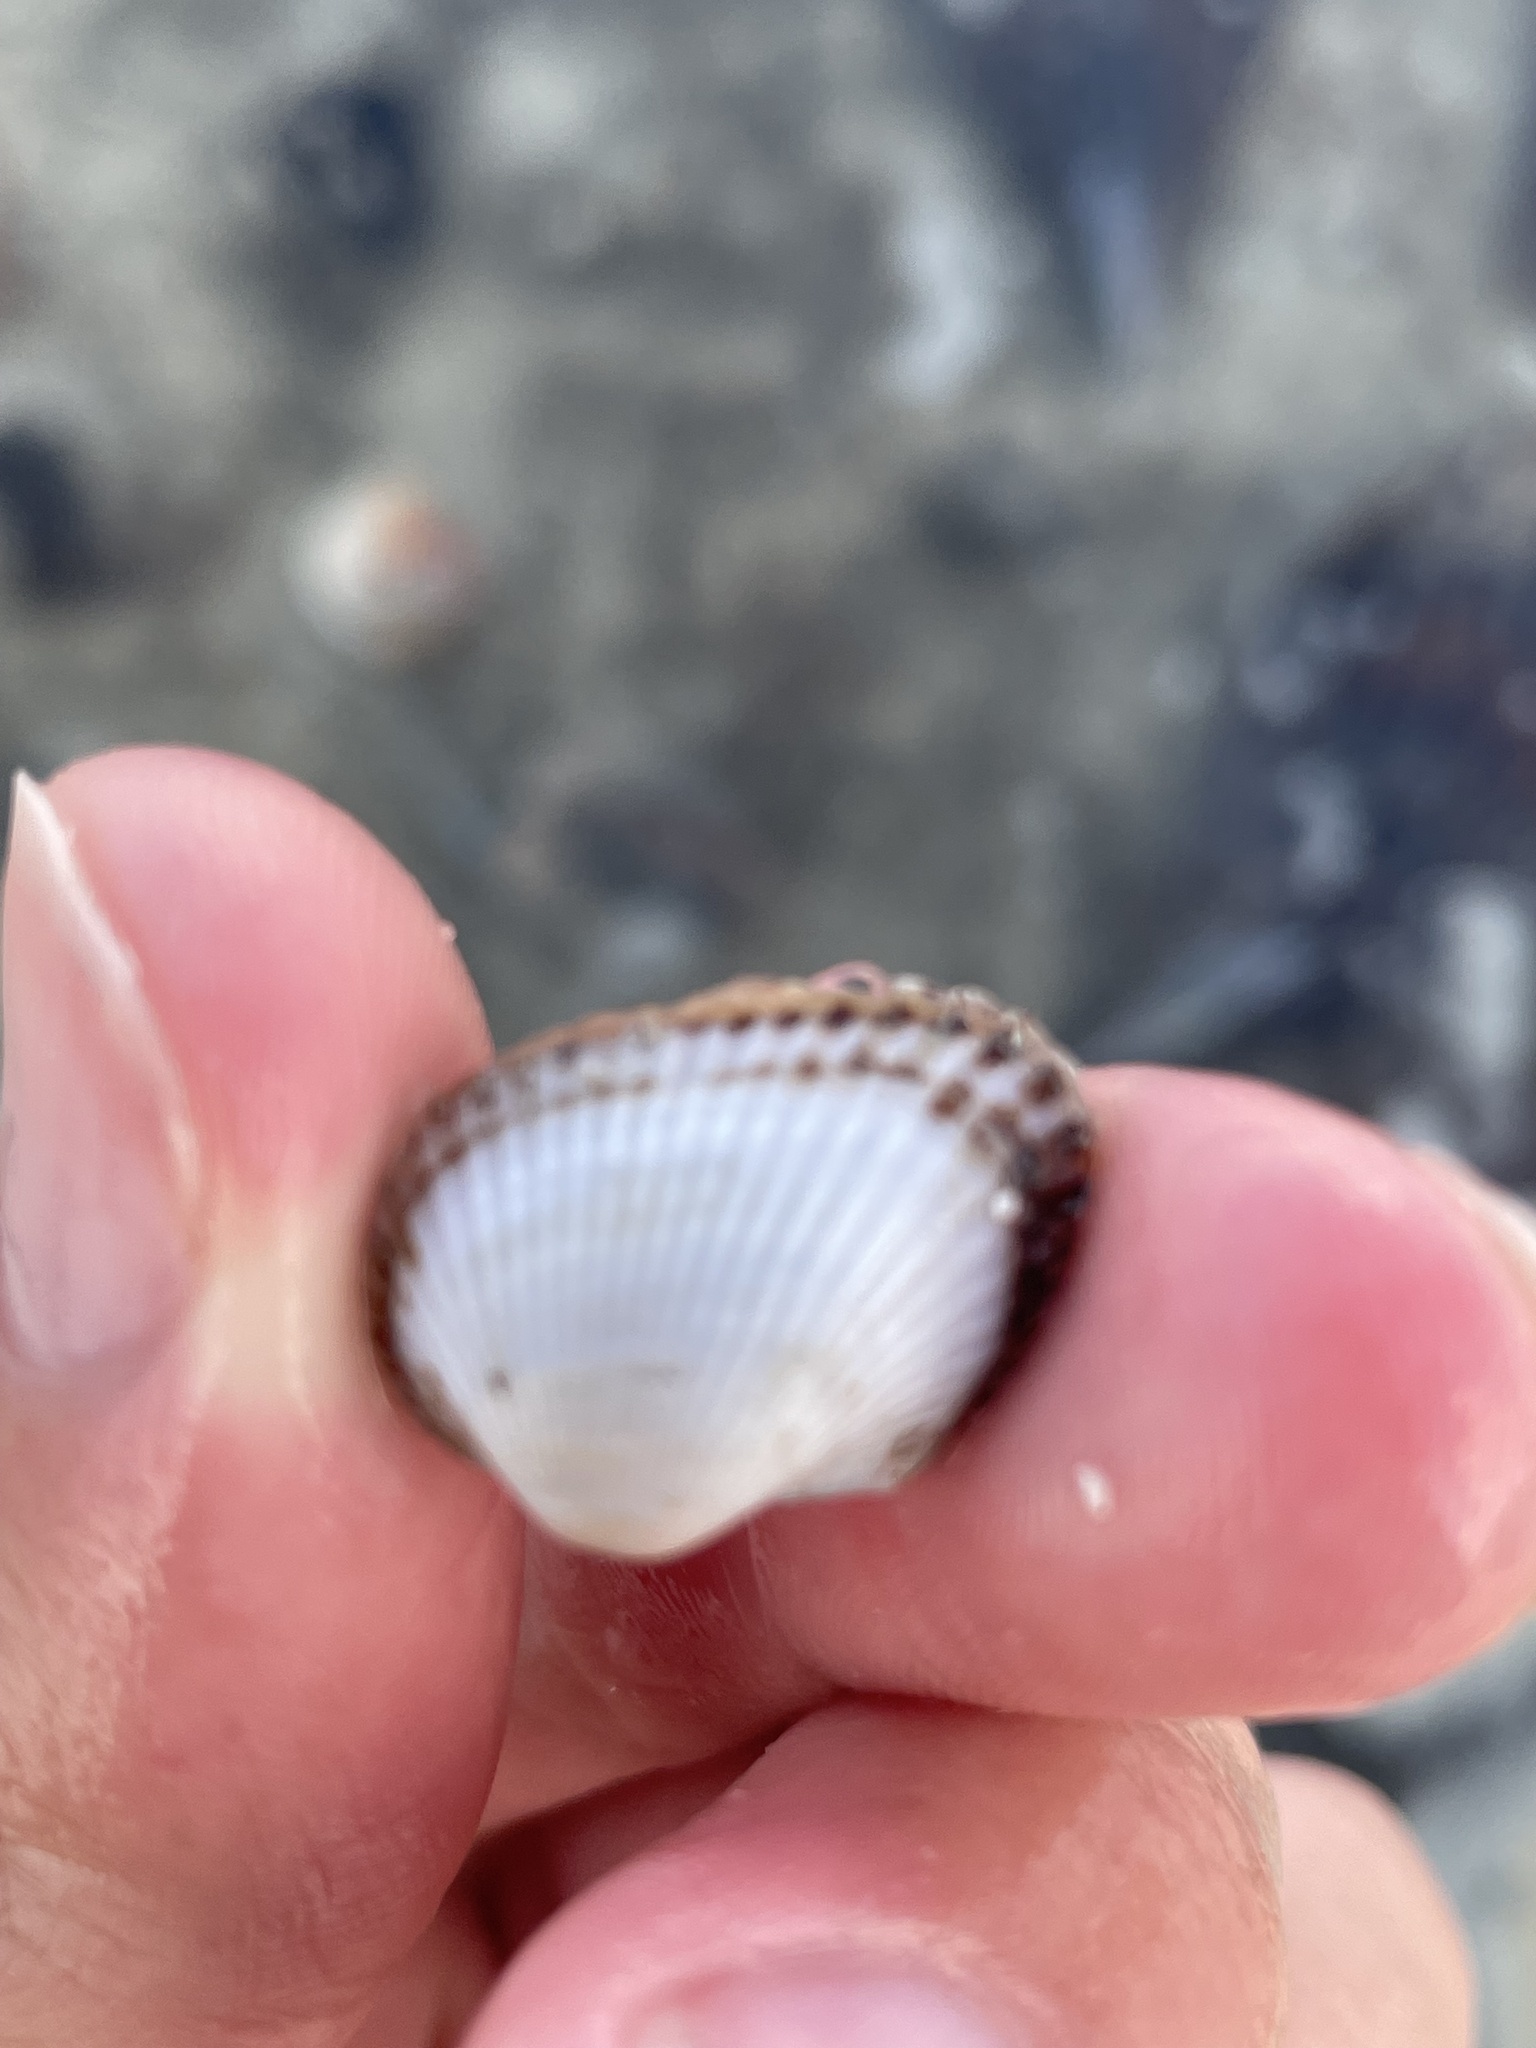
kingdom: Animalia
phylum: Mollusca
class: Bivalvia
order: Arcida
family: Arcidae
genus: Anadara
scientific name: Anadara transversa
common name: Transverse ark
